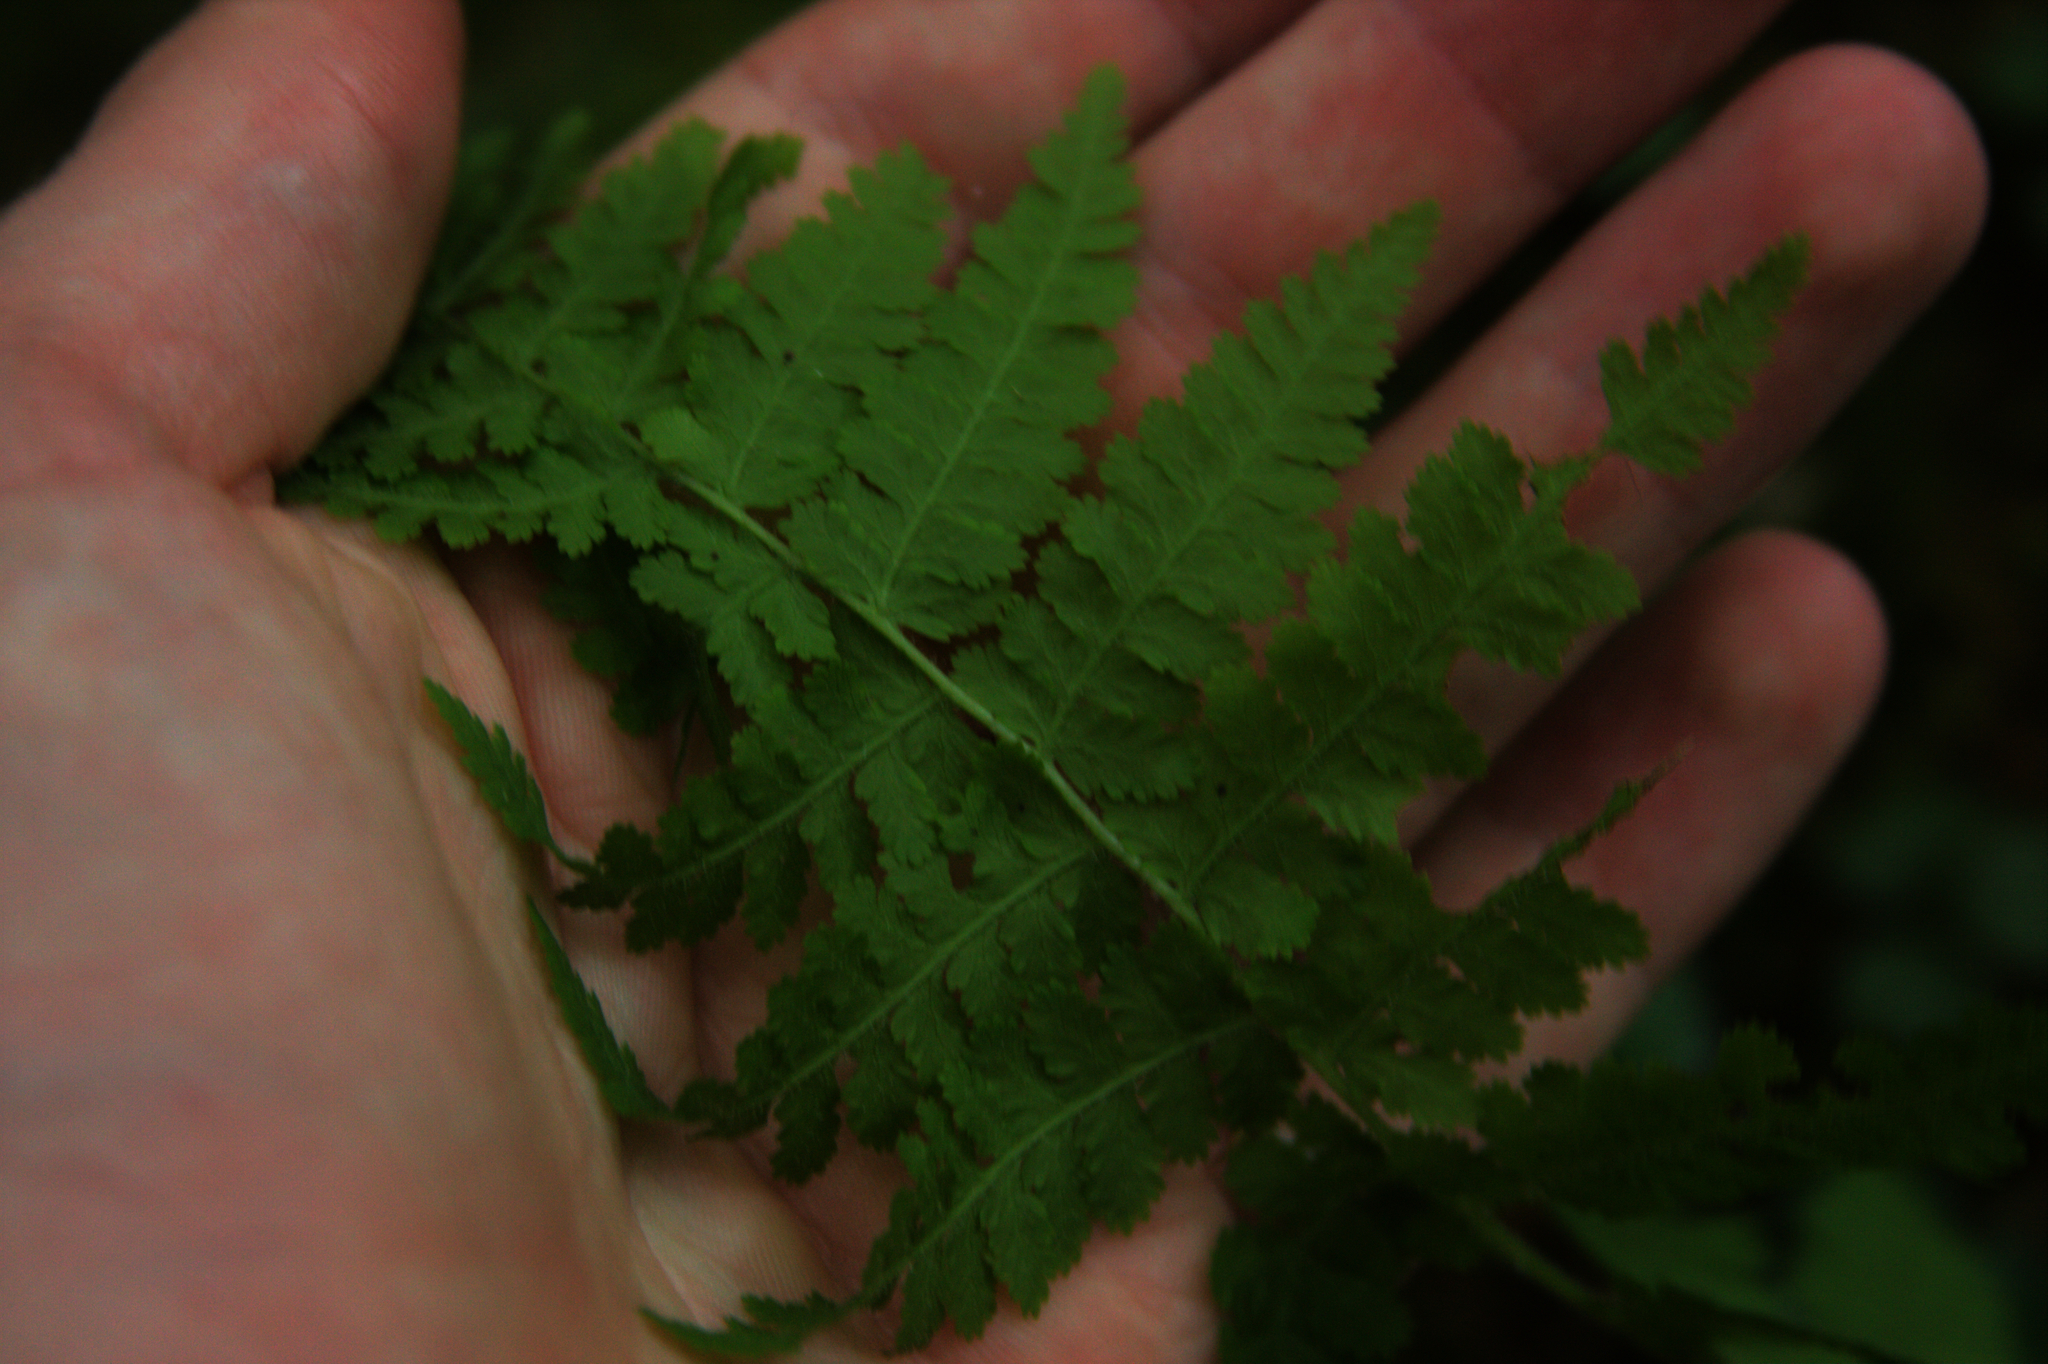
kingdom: Plantae
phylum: Tracheophyta
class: Polypodiopsida
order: Polypodiales
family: Dennstaedtiaceae
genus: Sitobolium
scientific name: Sitobolium punctilobum
